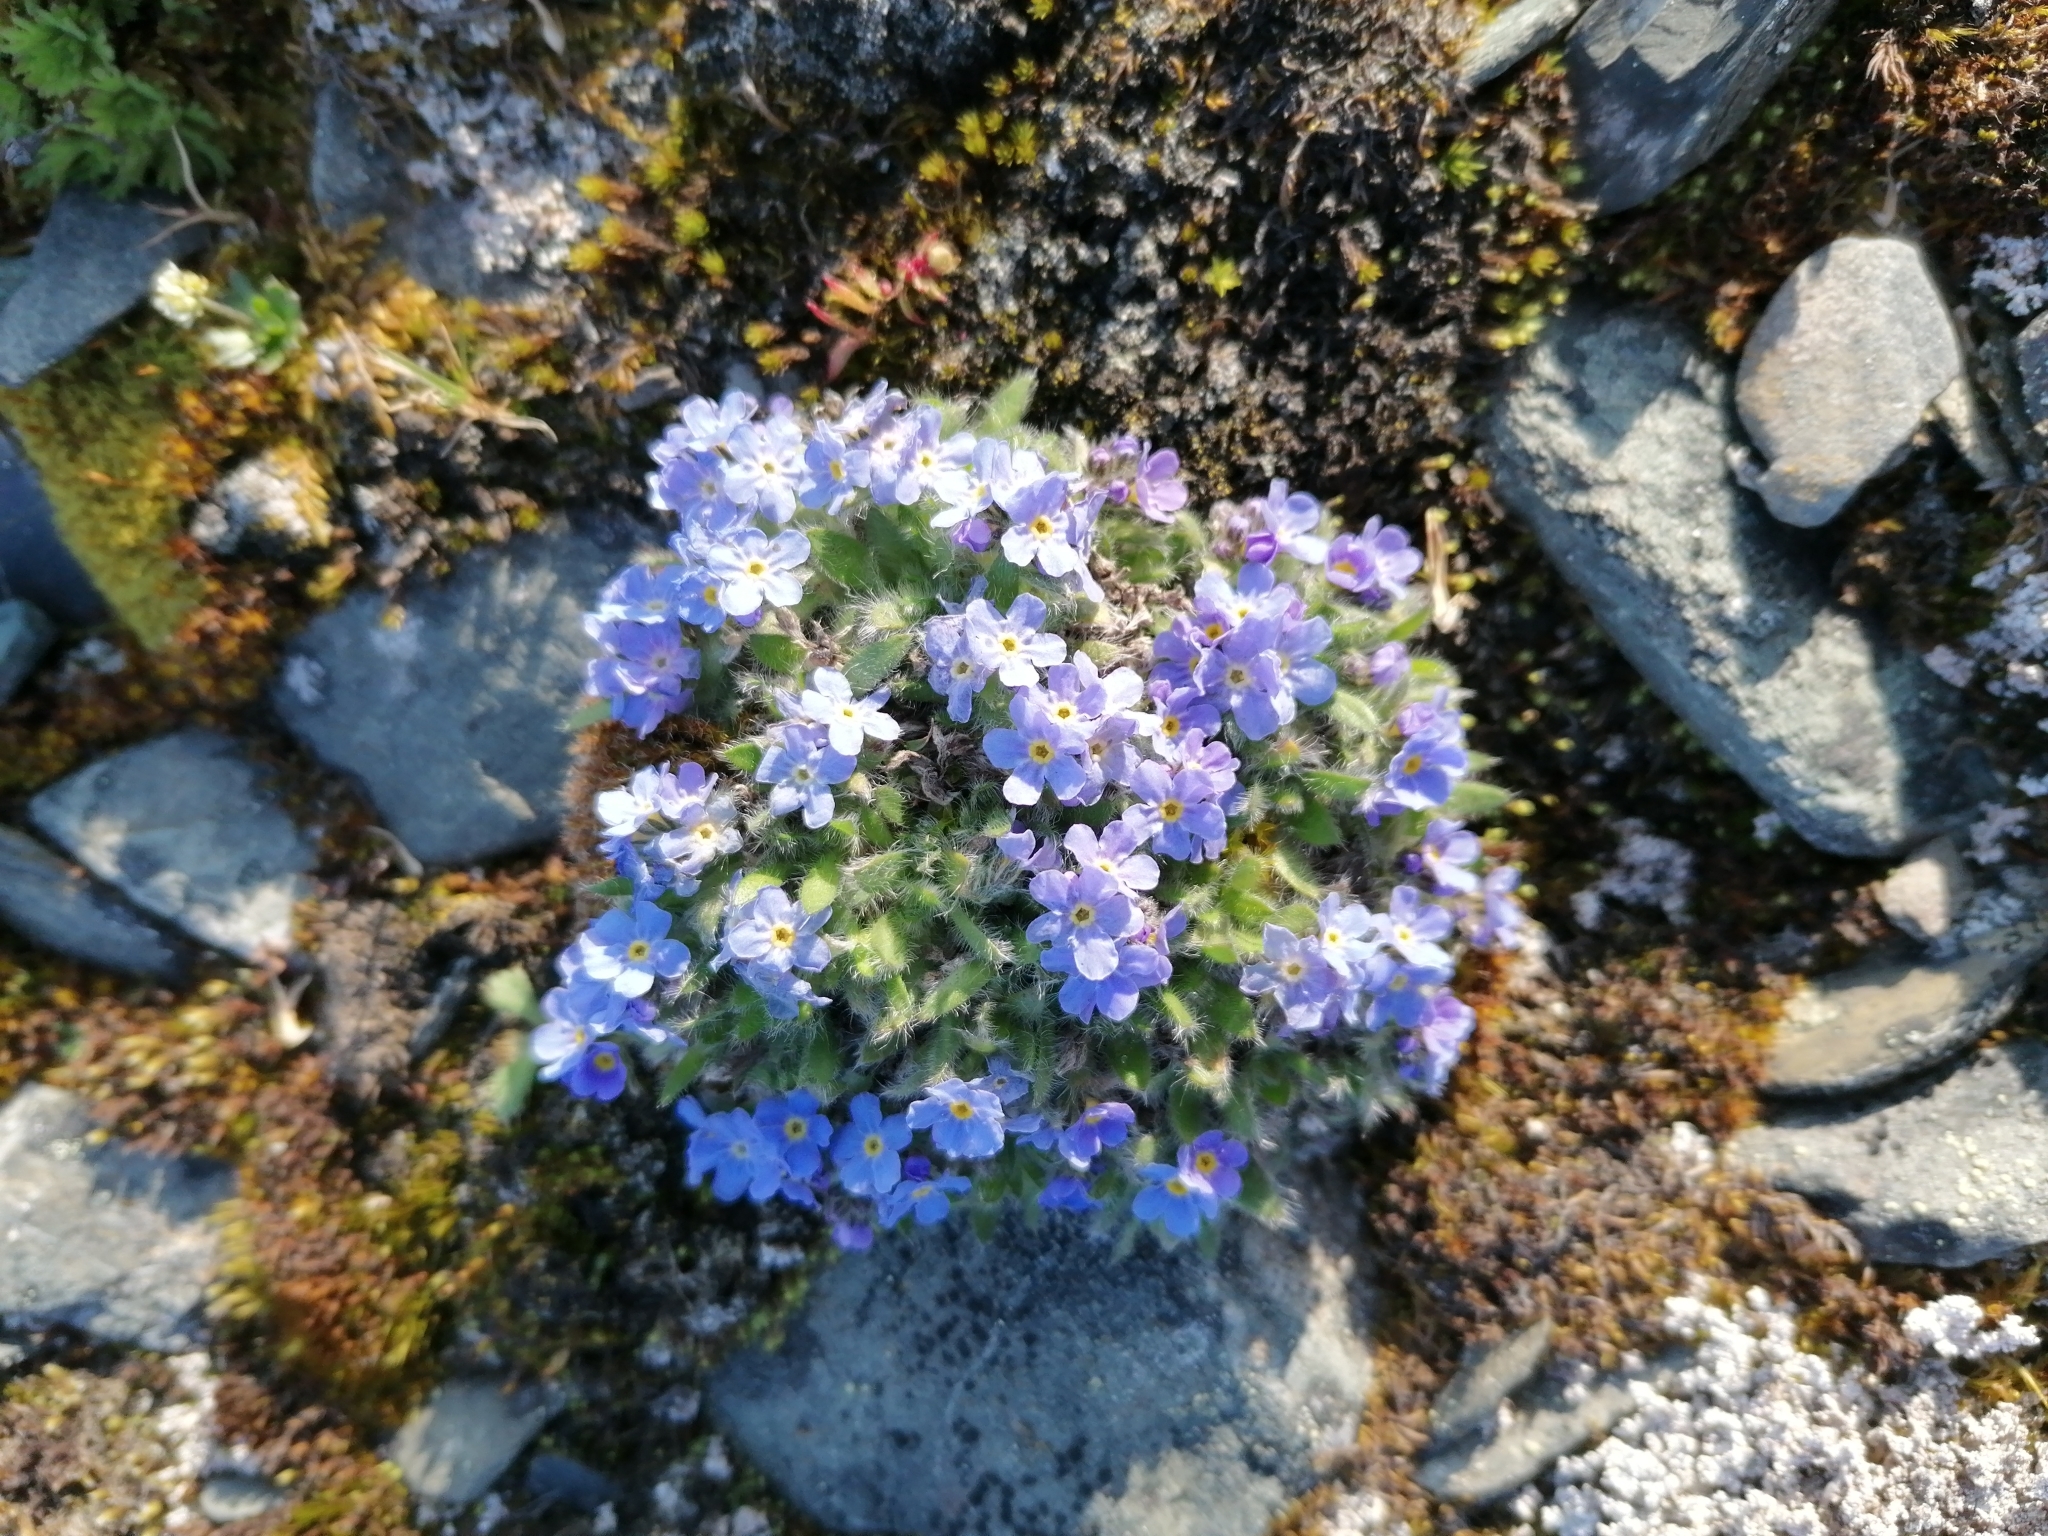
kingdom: Plantae
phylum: Tracheophyta
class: Magnoliopsida
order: Boraginales
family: Boraginaceae
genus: Eritrichium
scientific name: Eritrichium pulvinatum
